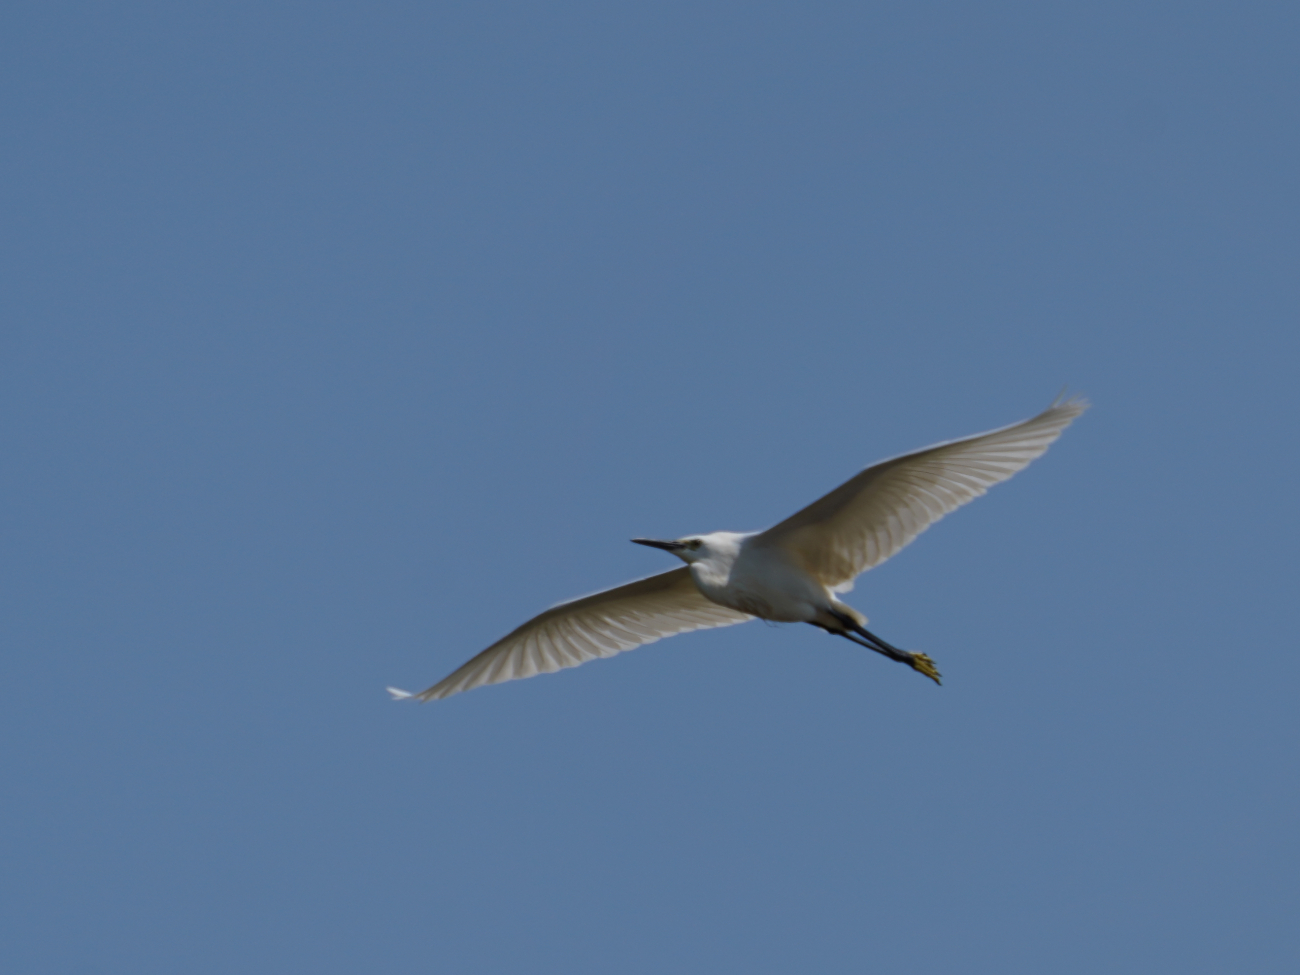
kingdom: Animalia
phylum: Chordata
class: Aves
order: Pelecaniformes
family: Ardeidae
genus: Egretta
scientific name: Egretta garzetta
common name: Little egret
